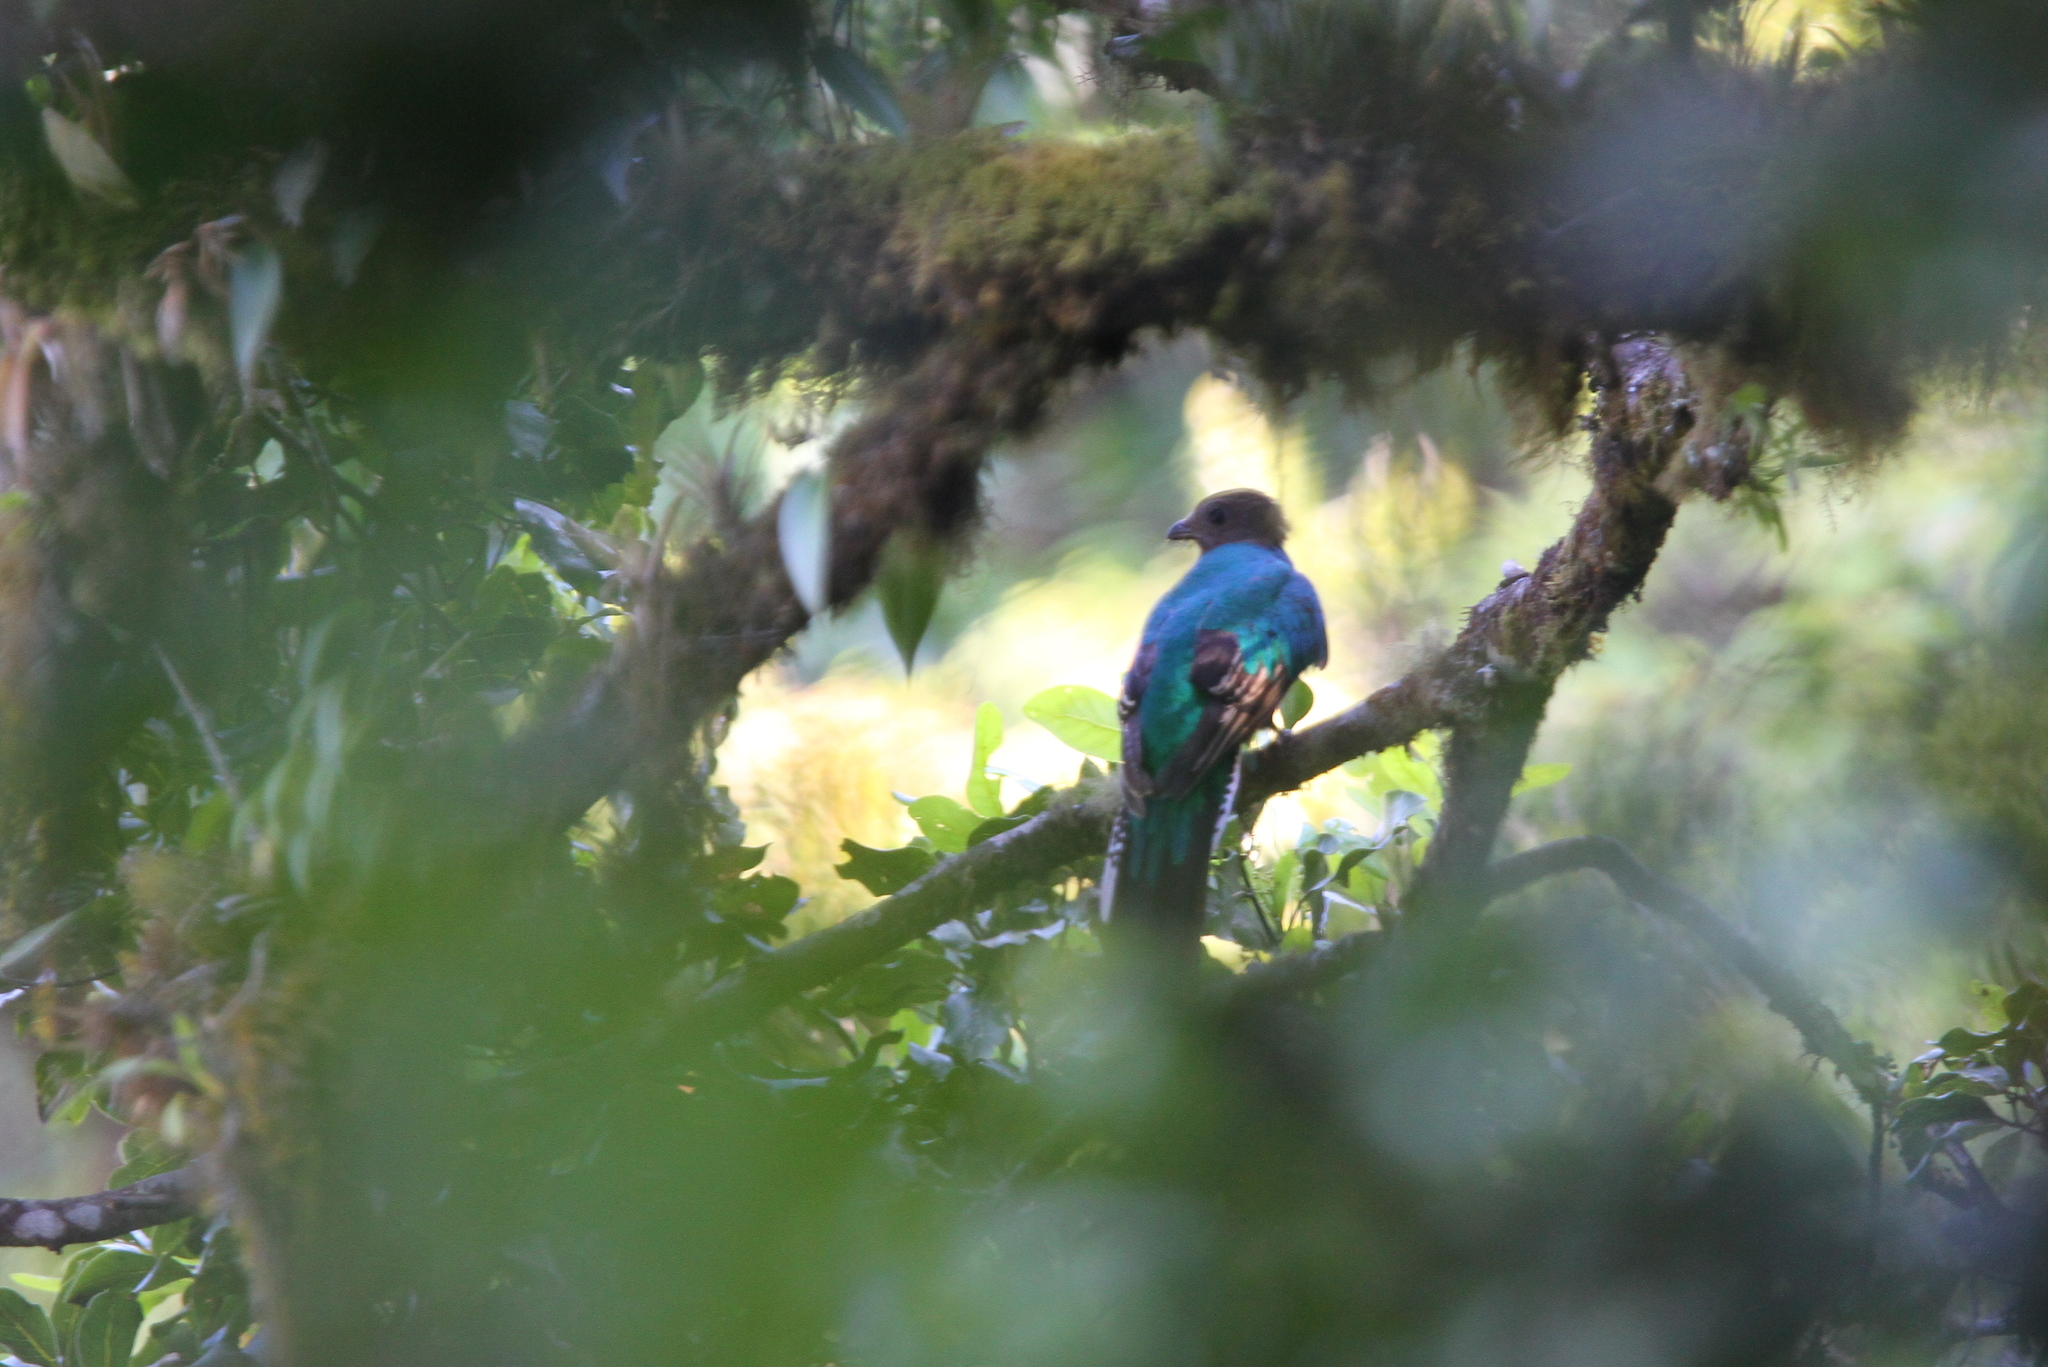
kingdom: Animalia
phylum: Chordata
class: Aves
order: Trogoniformes
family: Trogonidae
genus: Pharomachrus
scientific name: Pharomachrus mocinno
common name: Resplendent quetzal
